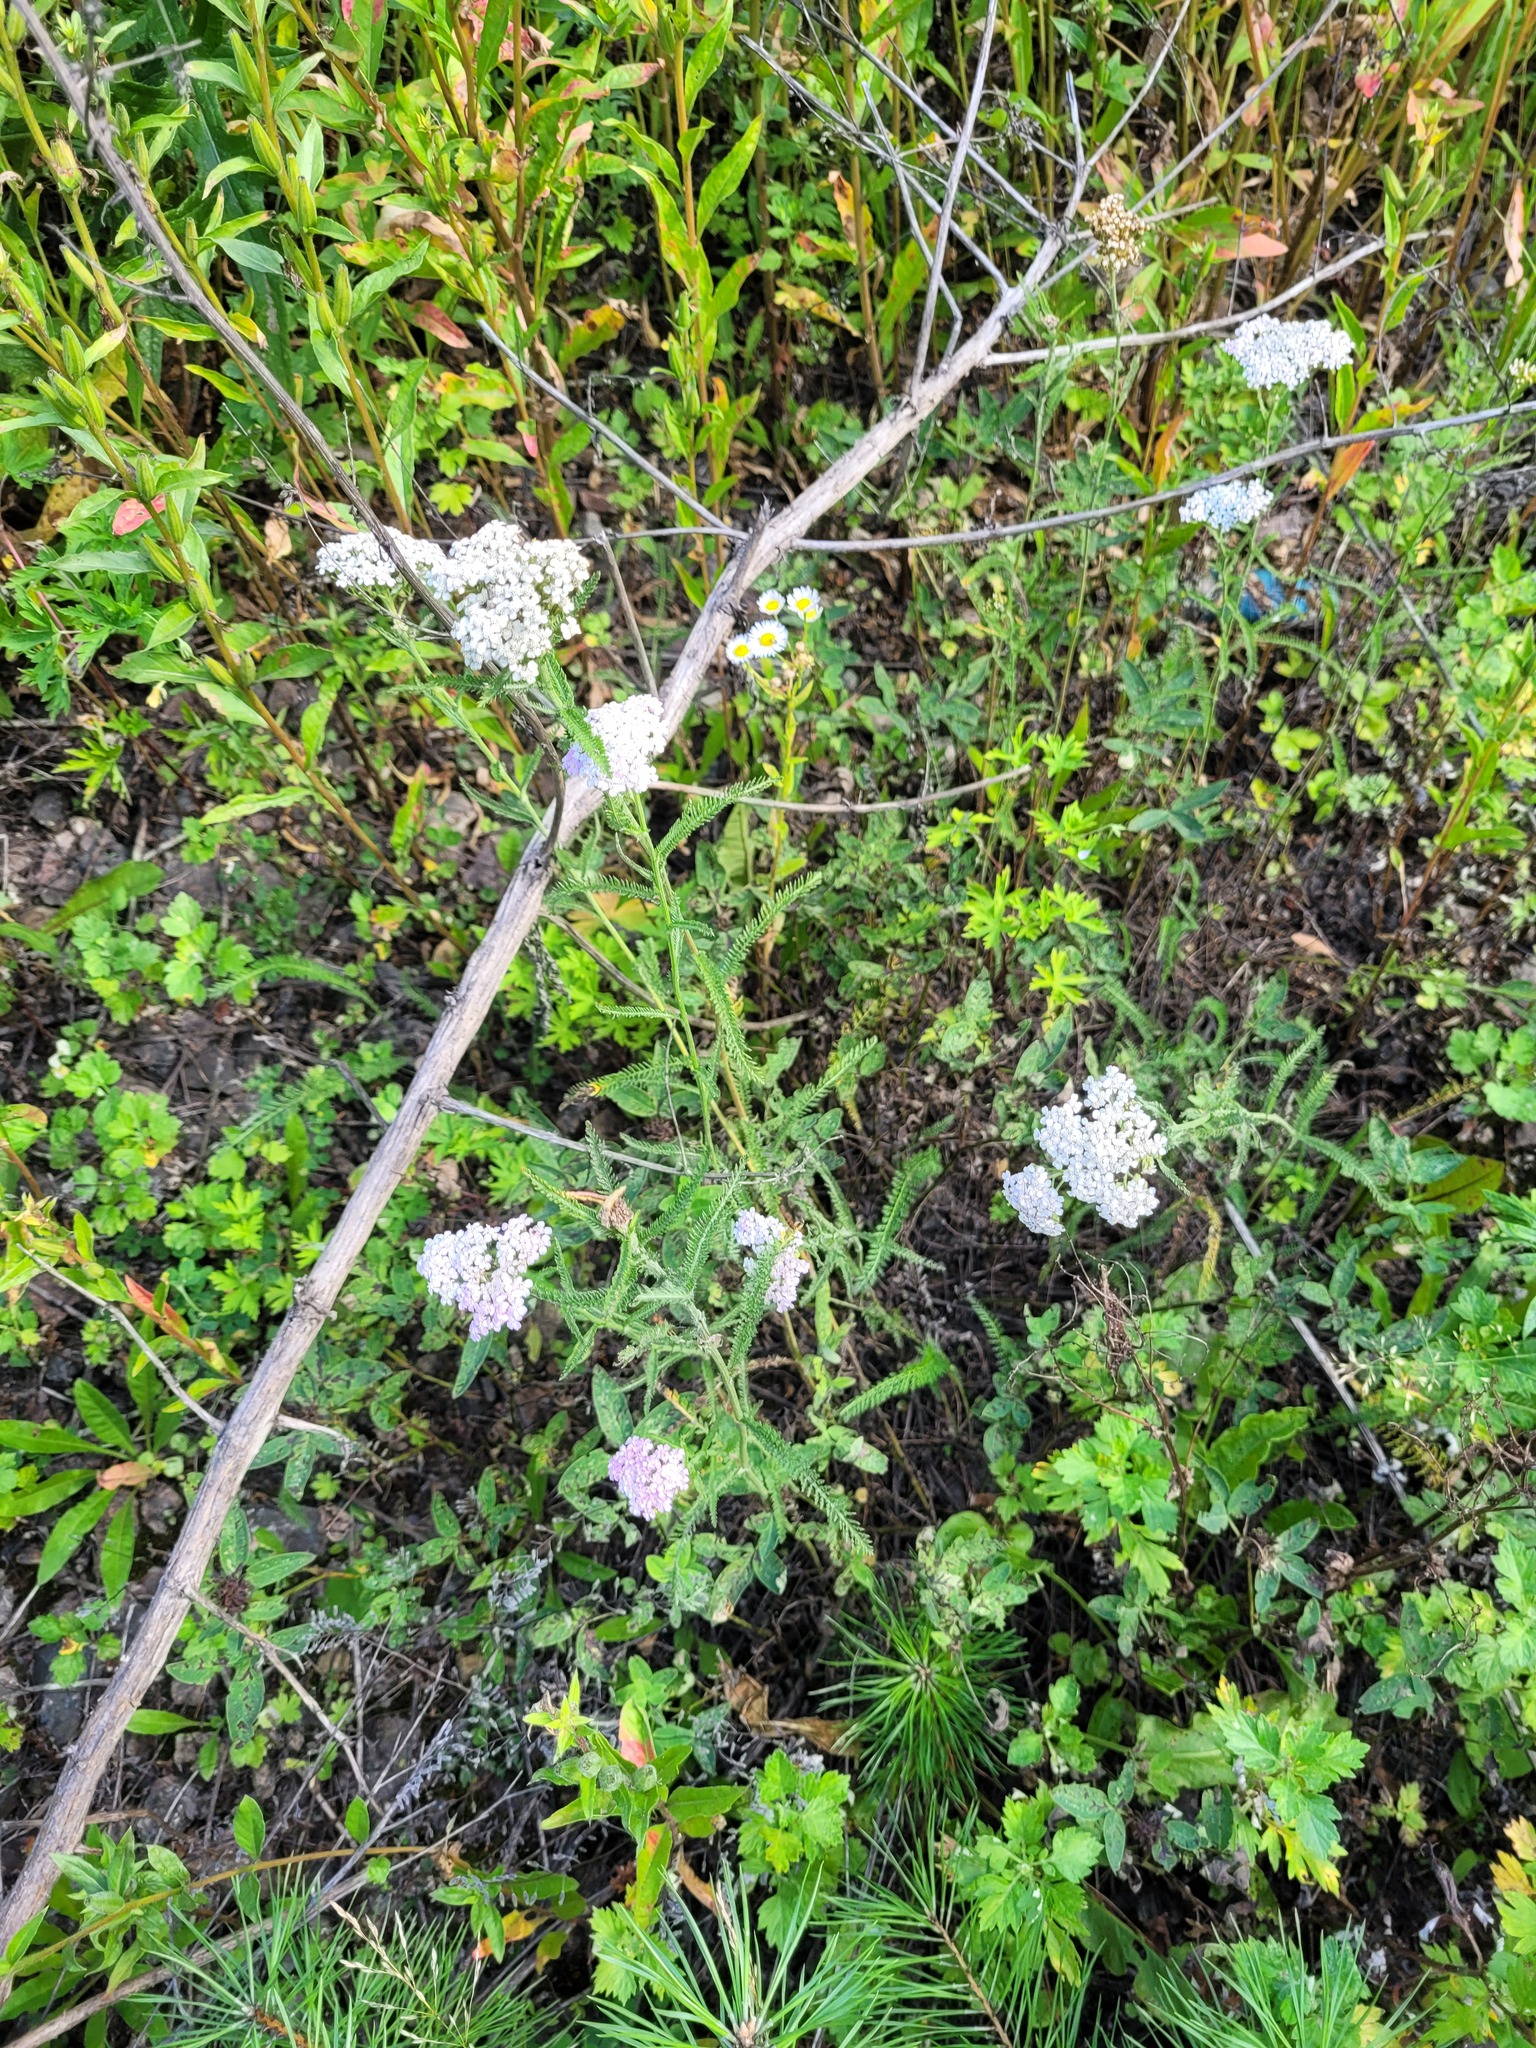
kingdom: Plantae
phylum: Tracheophyta
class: Magnoliopsida
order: Asterales
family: Asteraceae
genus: Achillea
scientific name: Achillea millefolium
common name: Yarrow
